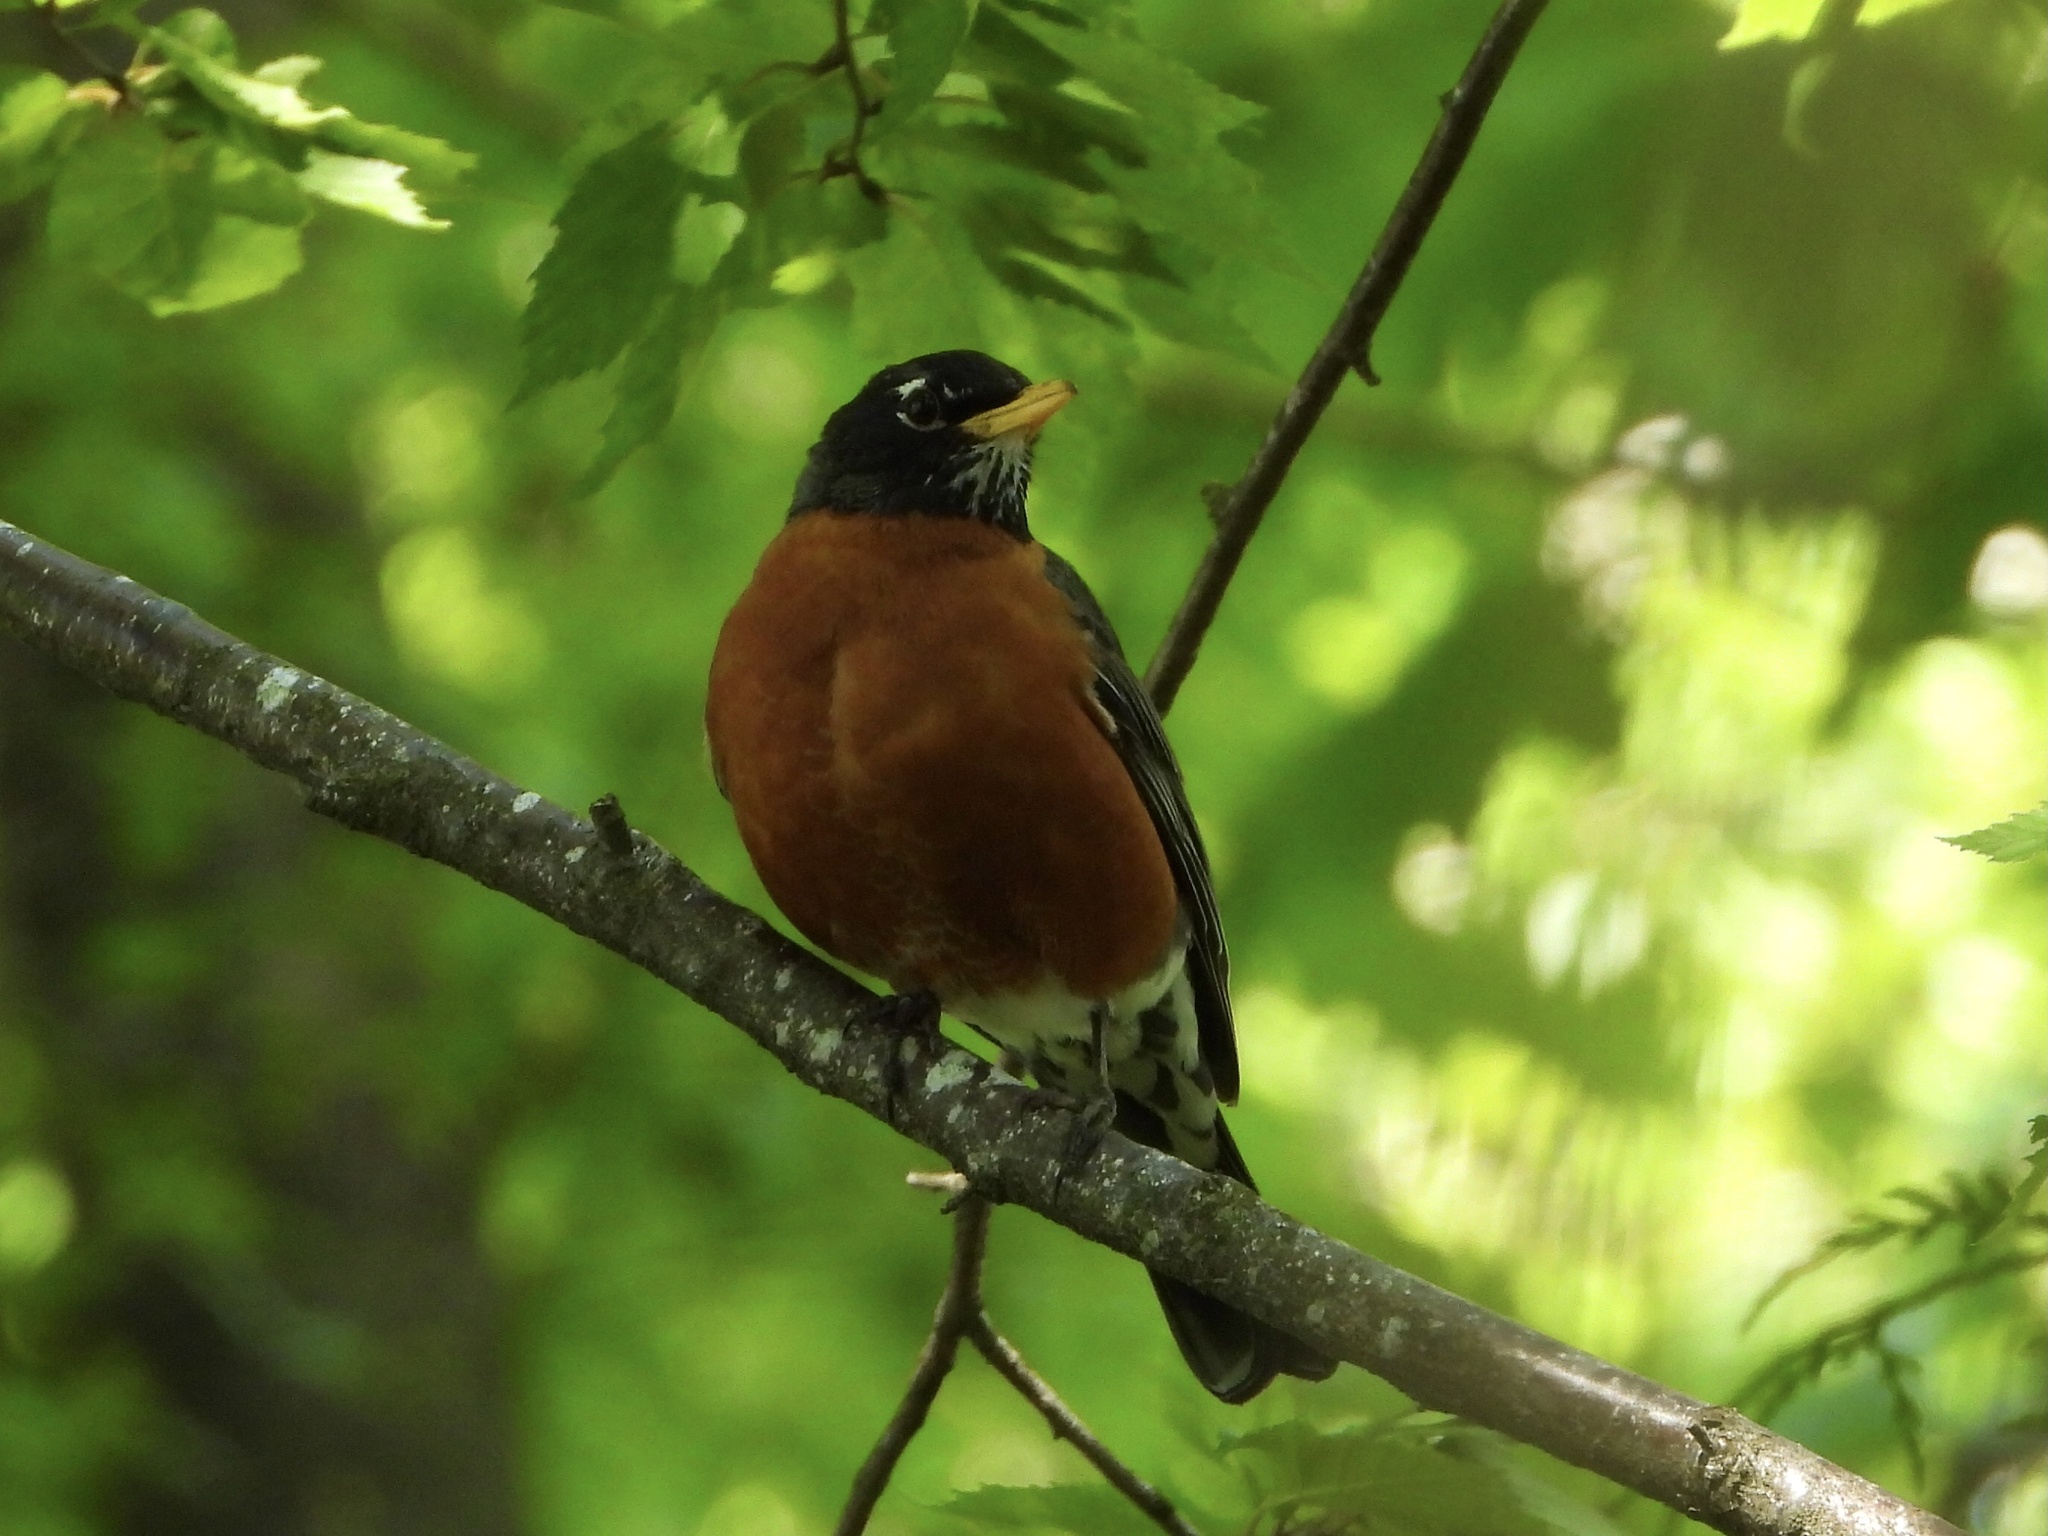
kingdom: Animalia
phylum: Chordata
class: Aves
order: Passeriformes
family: Turdidae
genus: Turdus
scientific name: Turdus migratorius
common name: American robin
